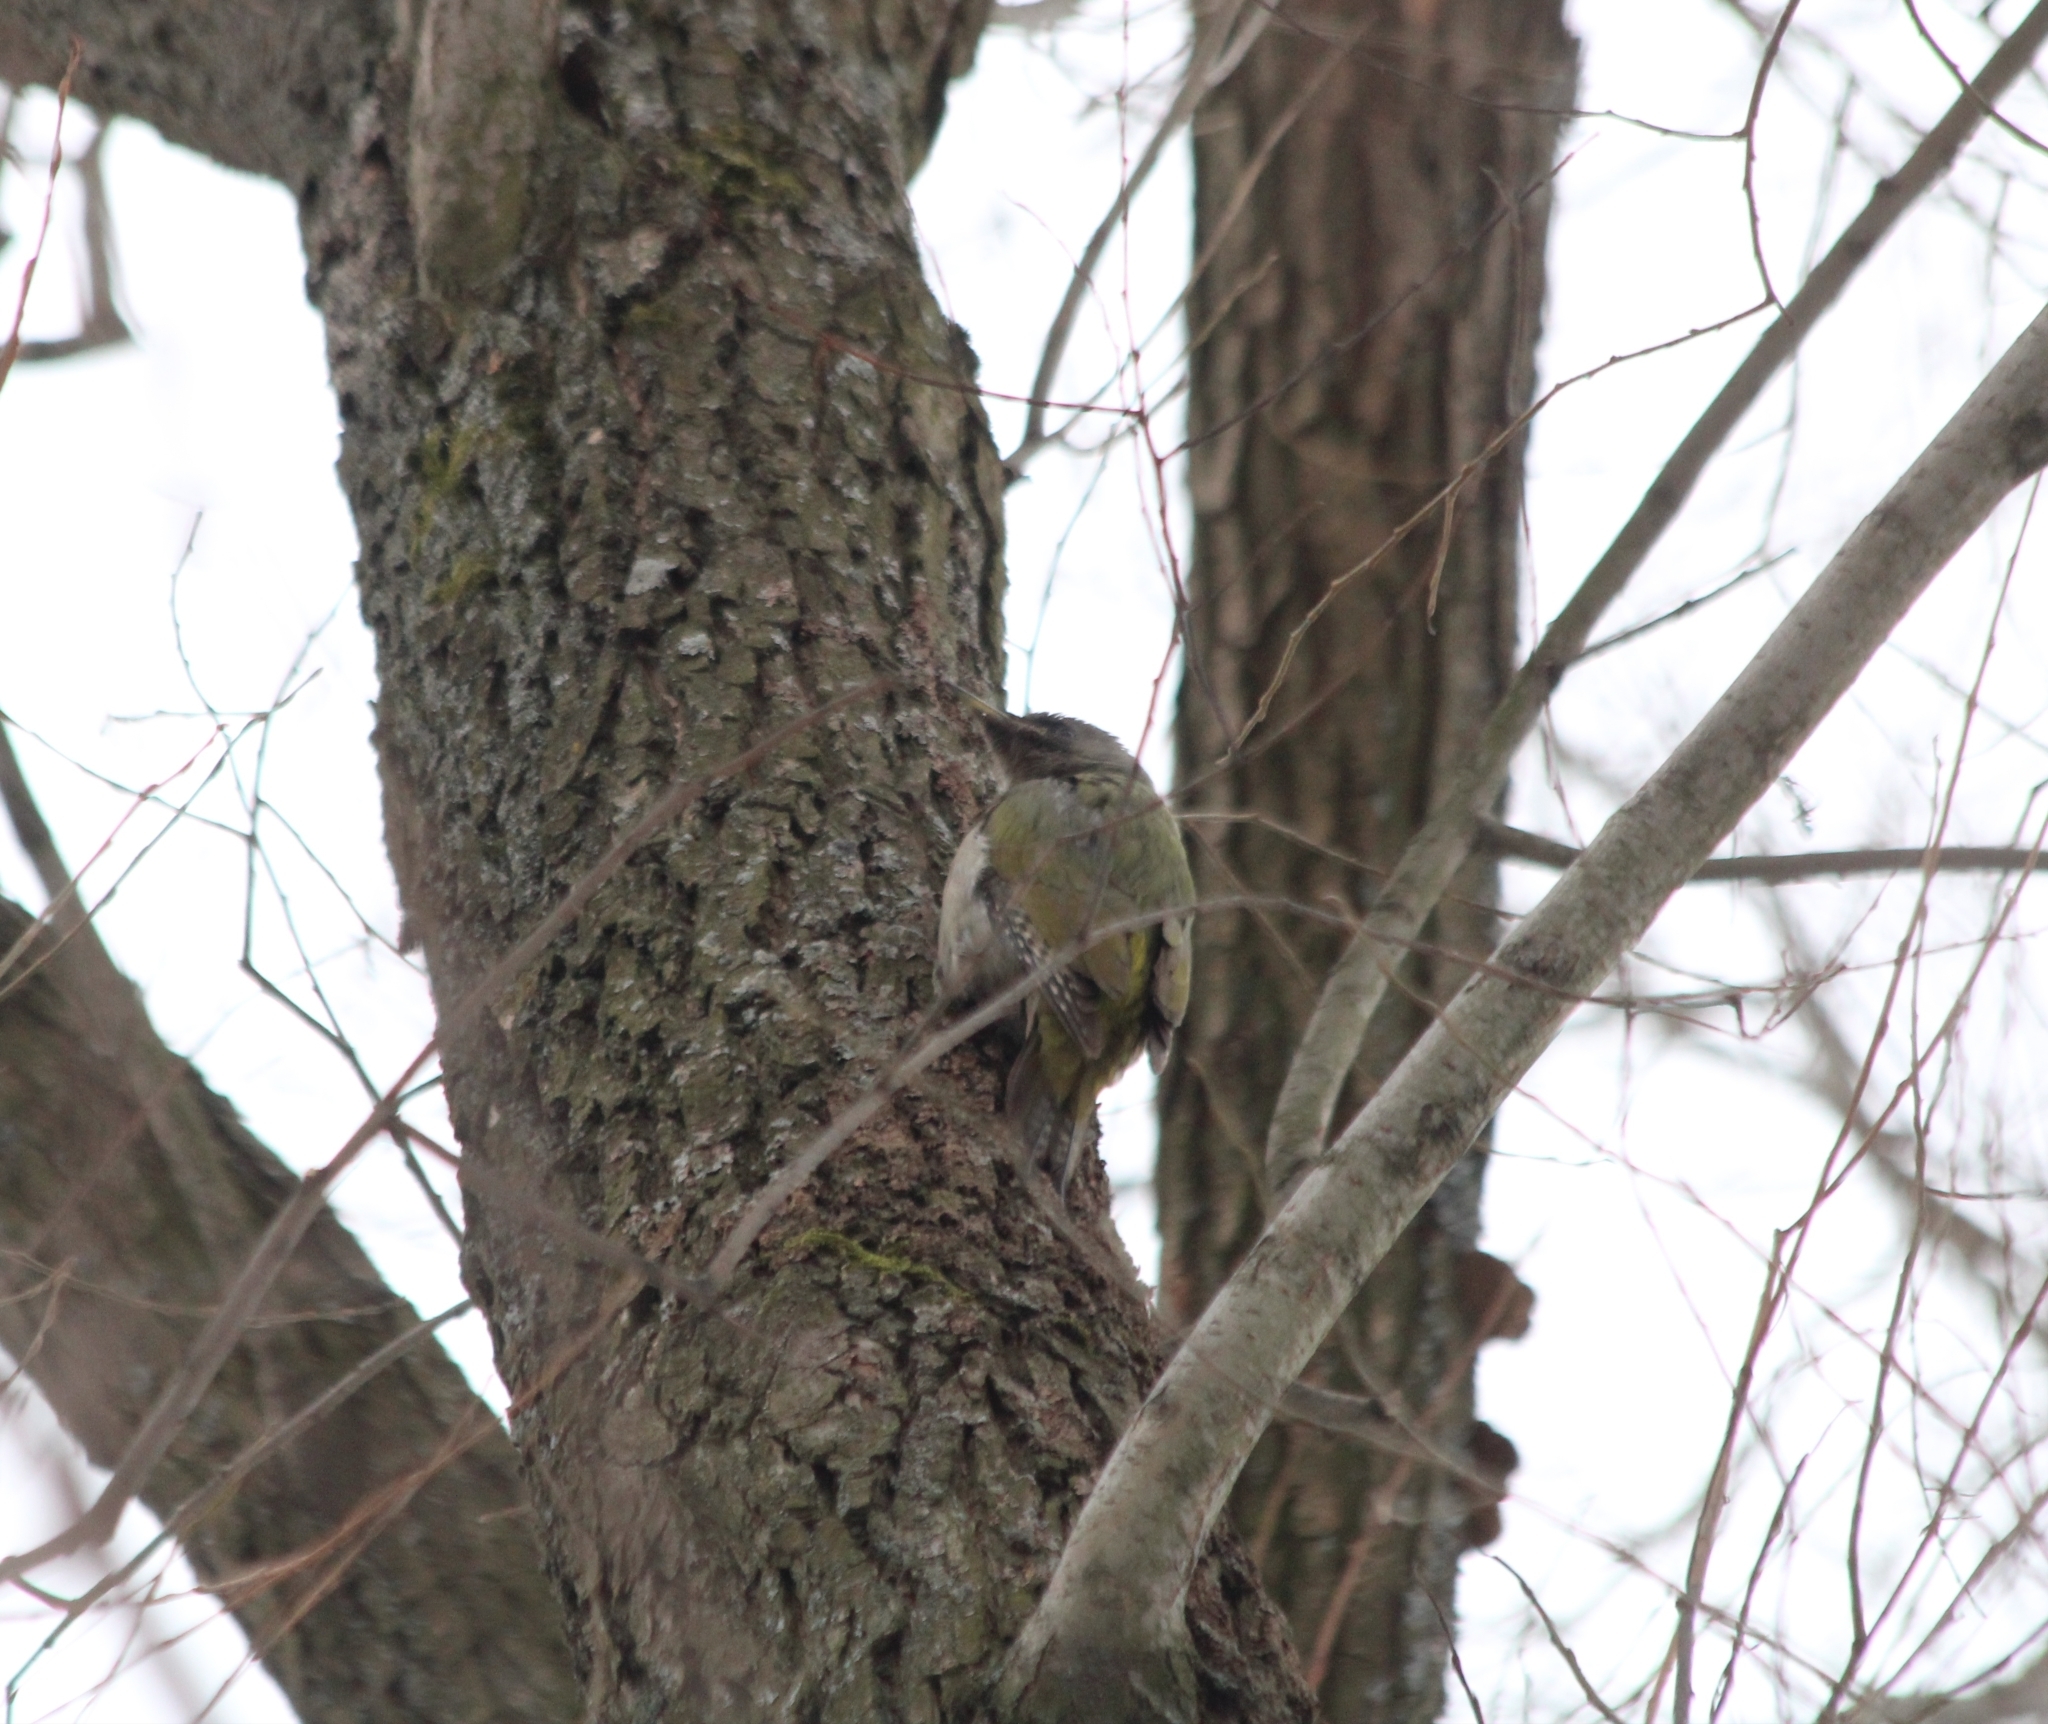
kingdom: Animalia
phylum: Chordata
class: Aves
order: Piciformes
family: Picidae
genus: Picus
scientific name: Picus canus
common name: Grey-headed woodpecker
